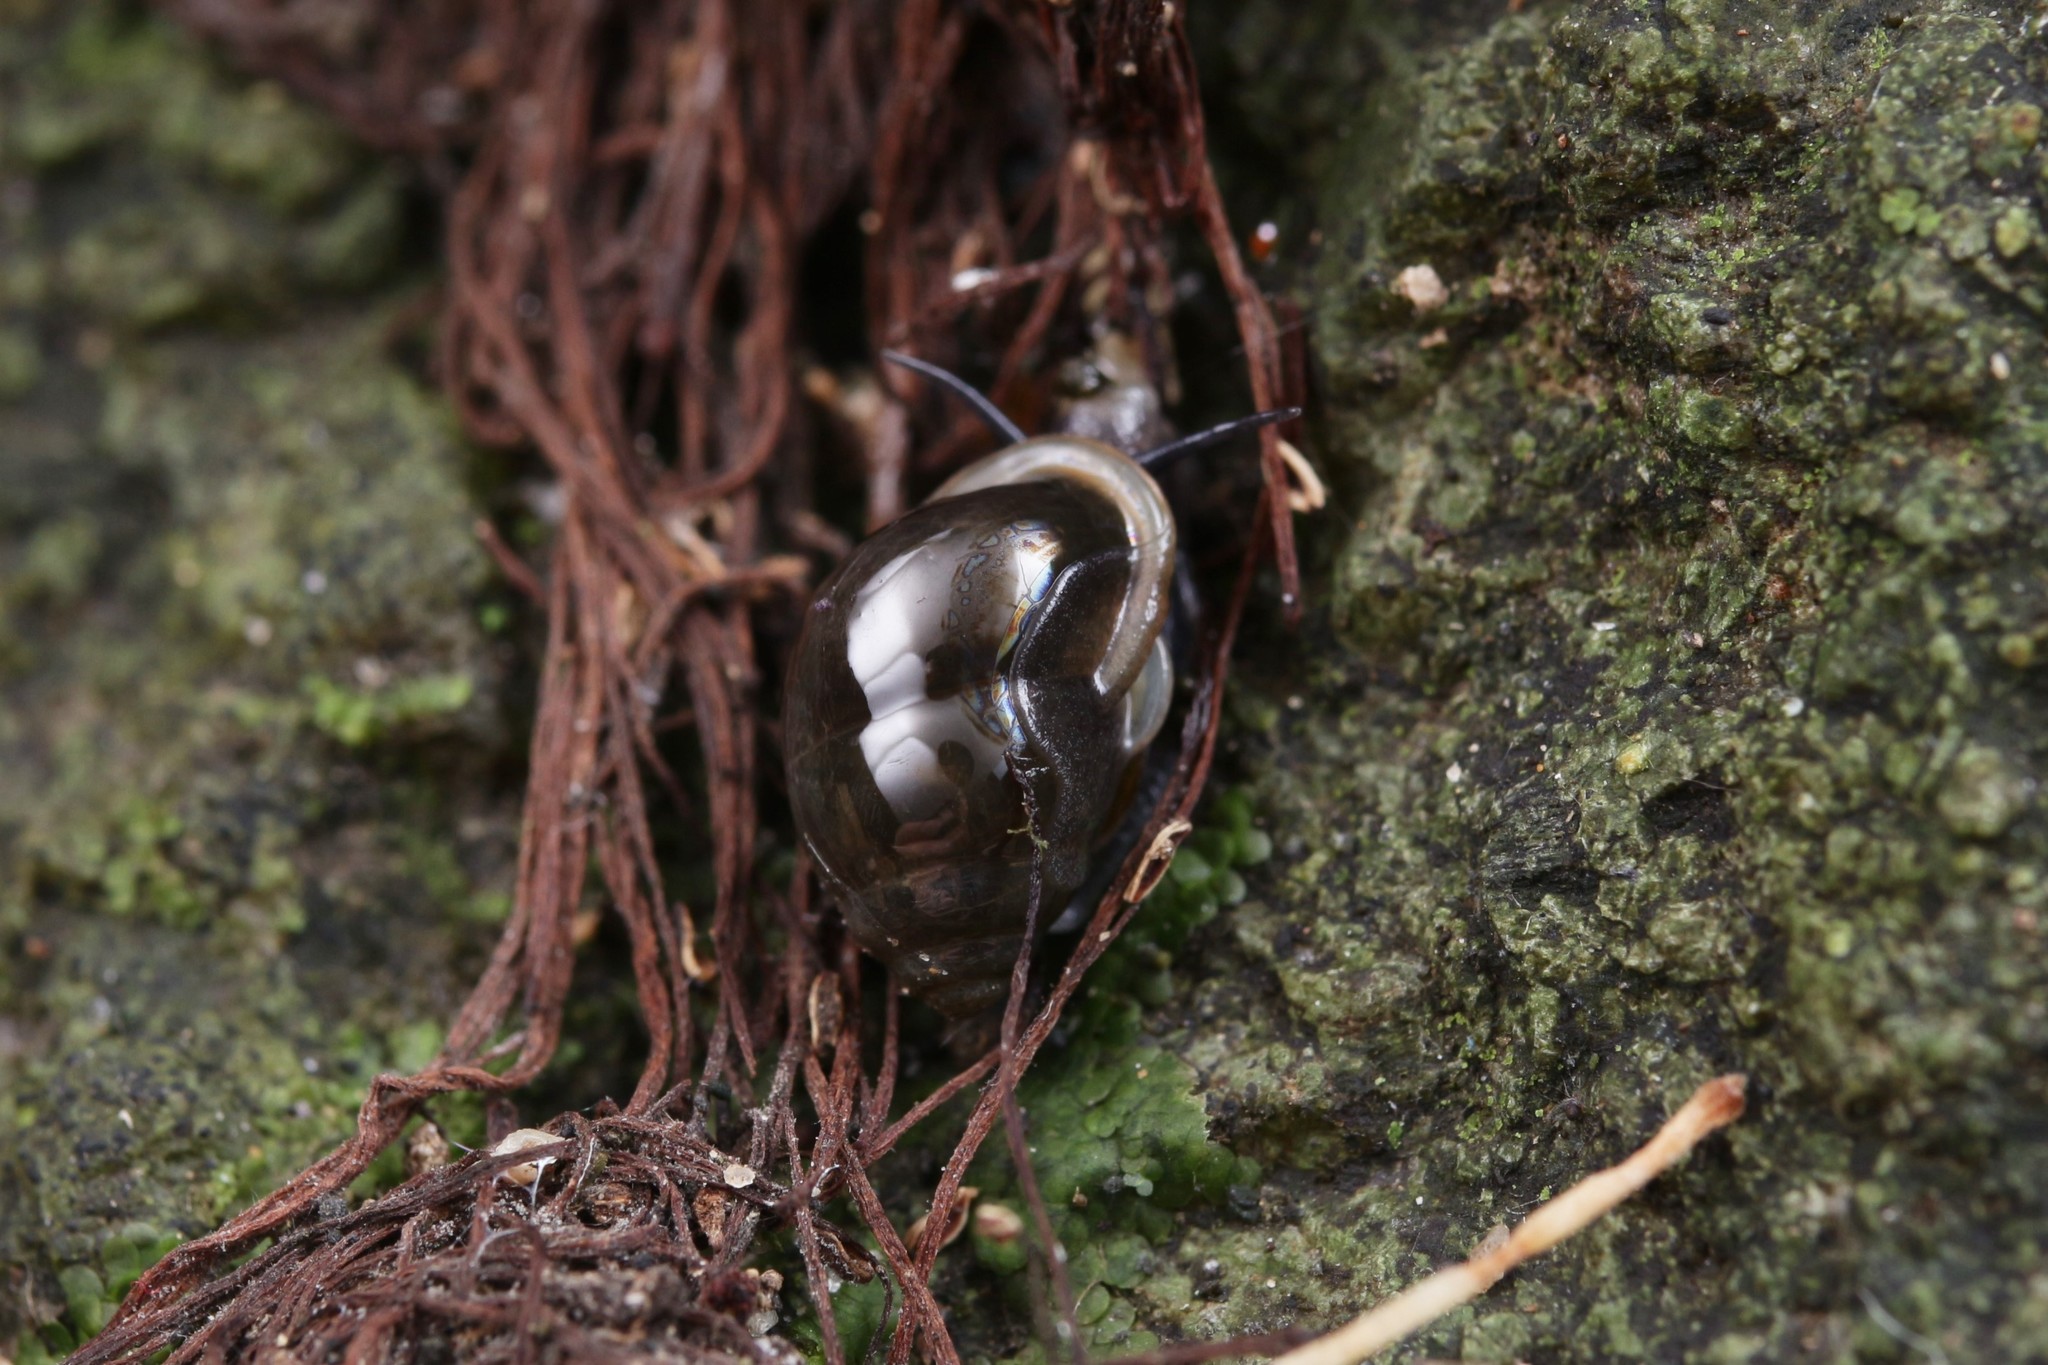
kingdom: Animalia
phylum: Mollusca
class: Gastropoda
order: Architaenioglossa
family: Pupinidae
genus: Tylotoechus
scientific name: Tylotoechus pulchellus
